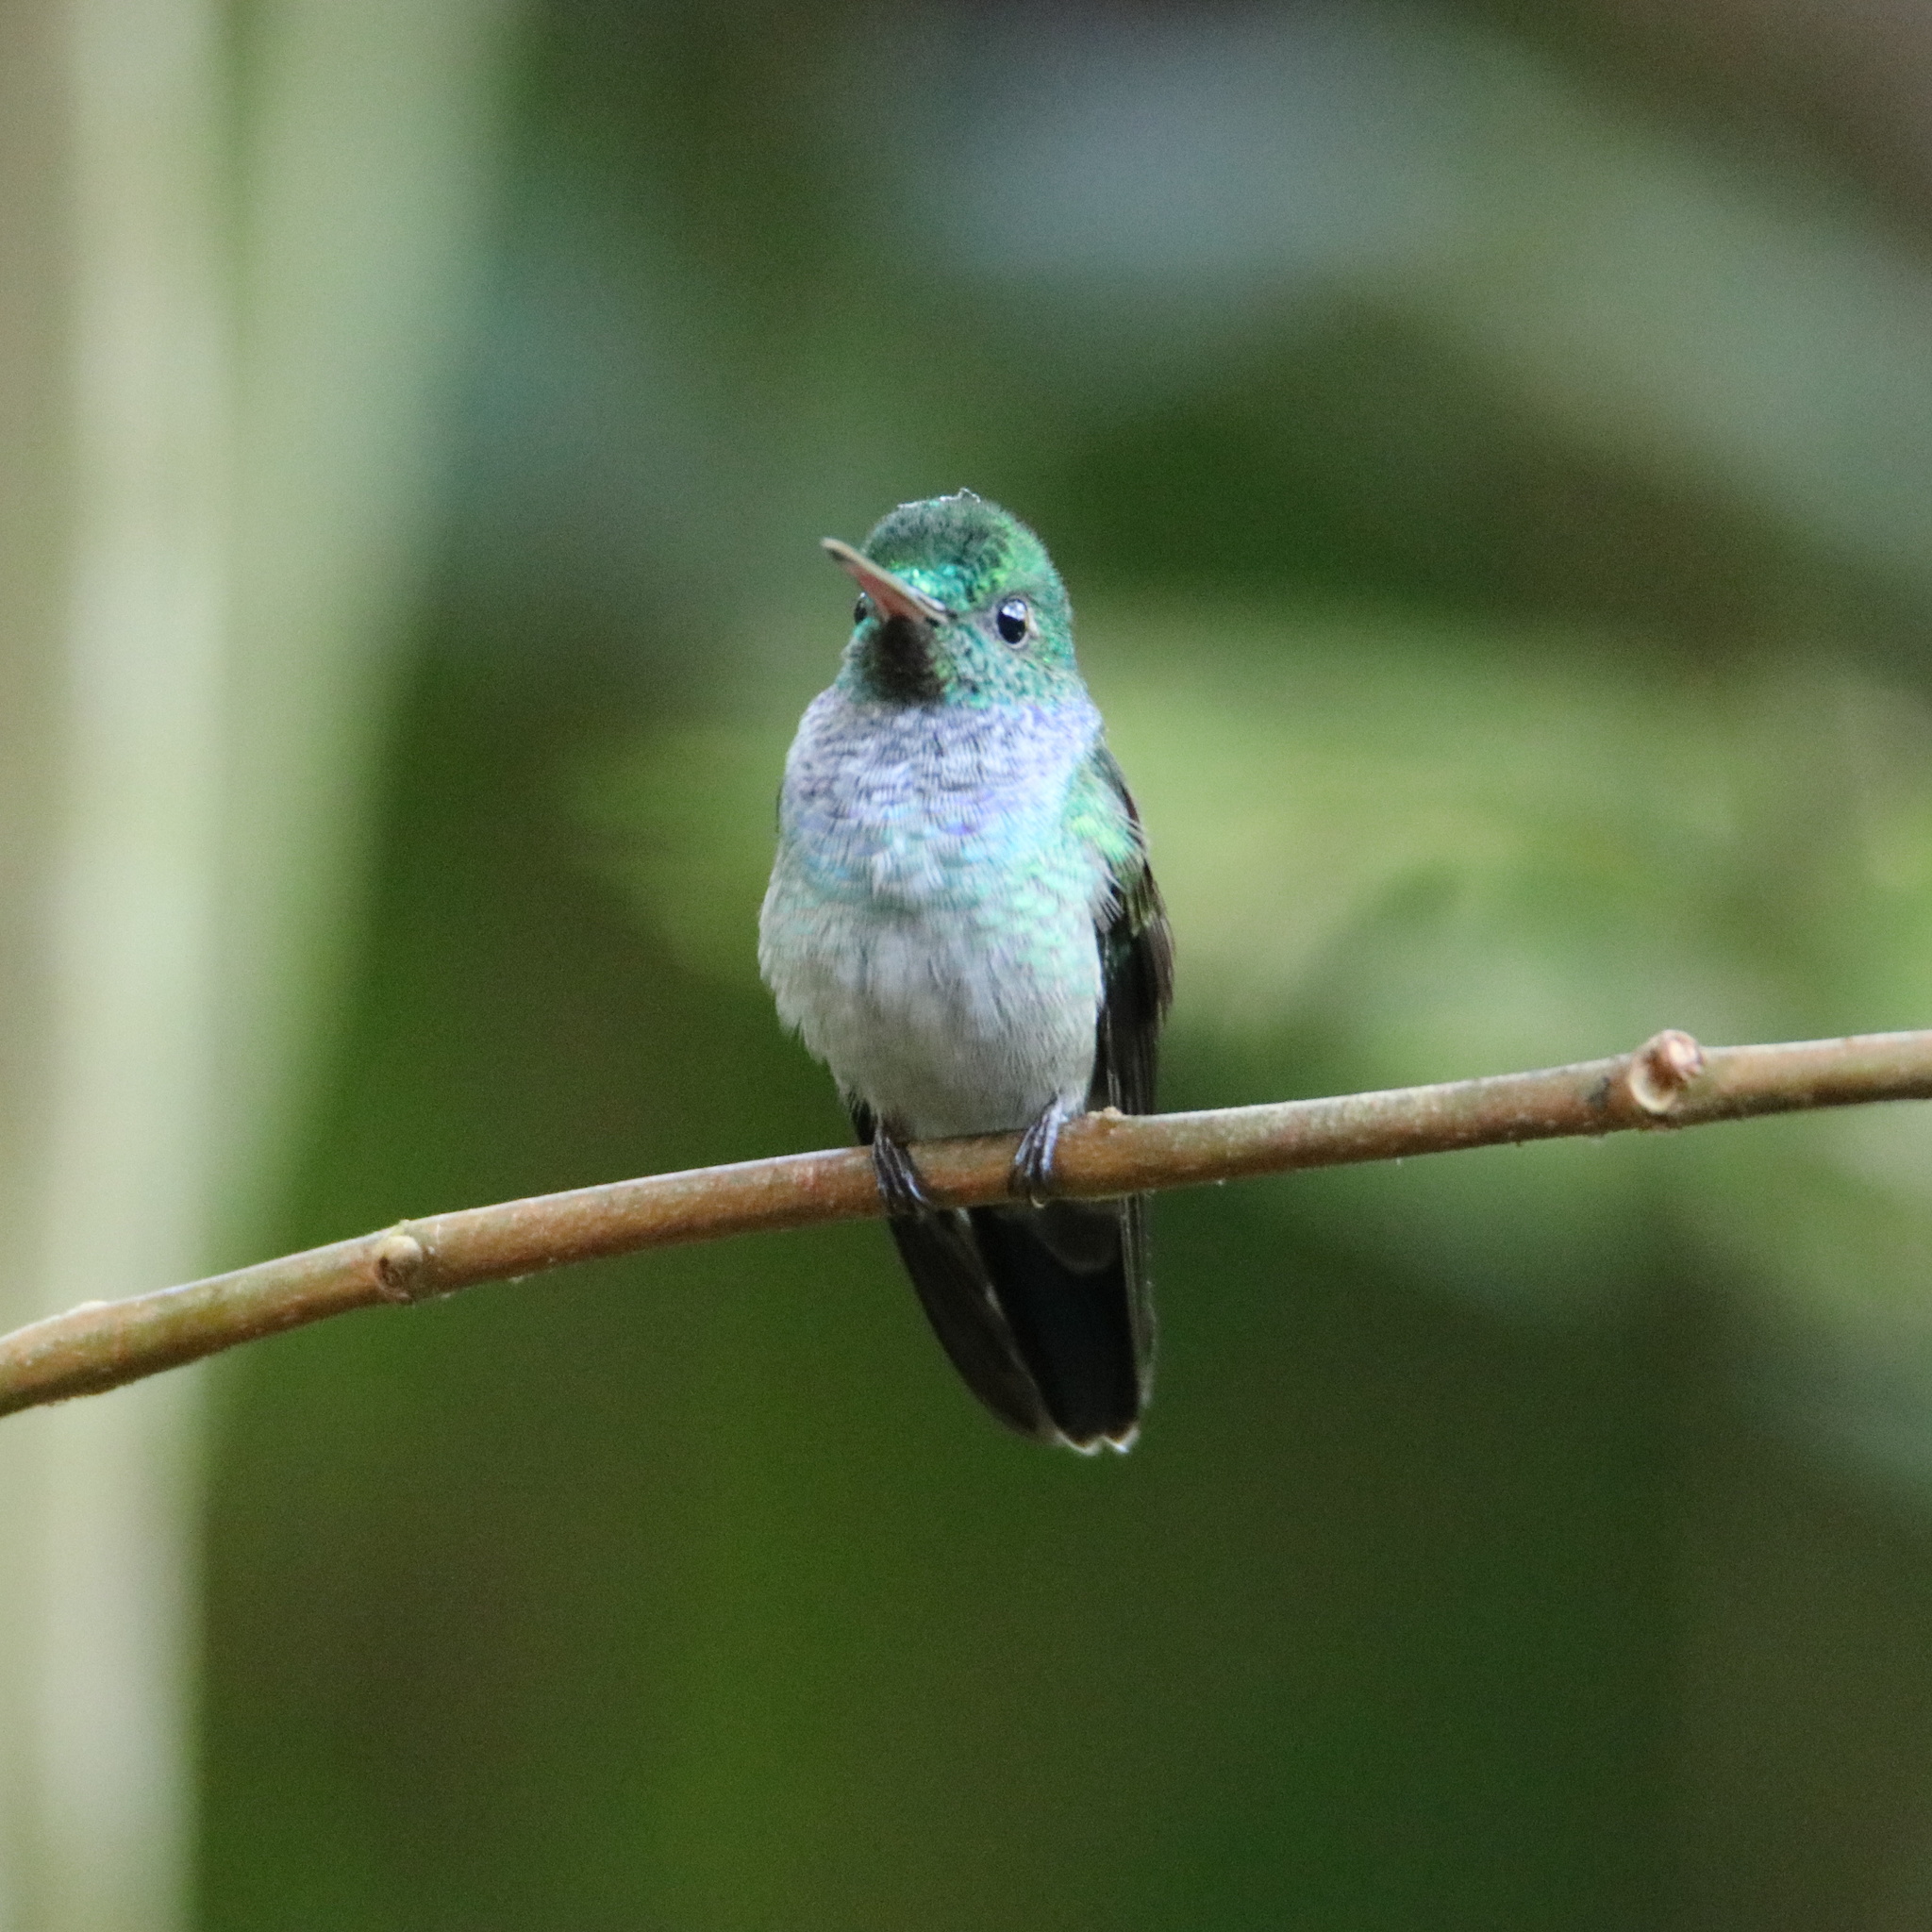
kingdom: Animalia
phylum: Chordata
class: Aves
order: Apodiformes
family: Trochilidae
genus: Polyerata
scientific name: Polyerata amabilis
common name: Blue-chested hummingbird
